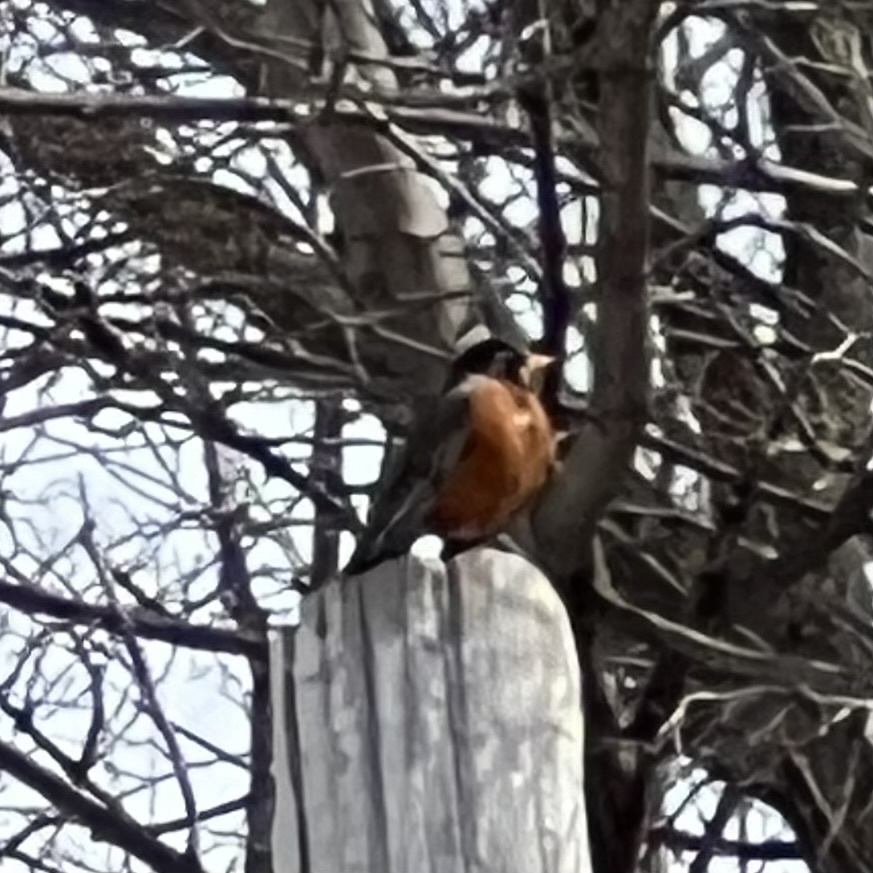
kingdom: Animalia
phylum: Chordata
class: Aves
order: Passeriformes
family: Turdidae
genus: Turdus
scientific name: Turdus migratorius
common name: American robin
